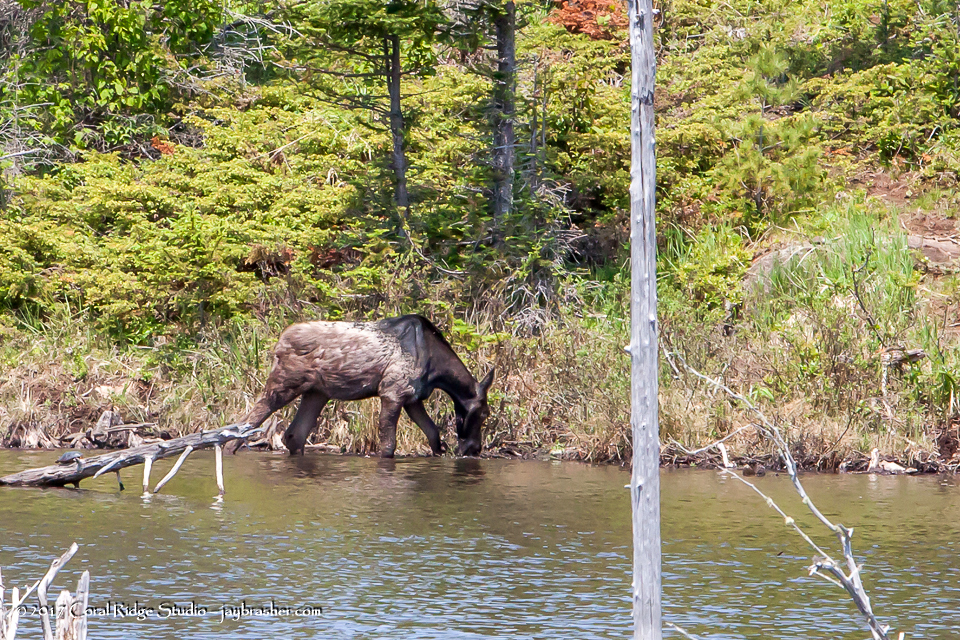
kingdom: Animalia
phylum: Chordata
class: Mammalia
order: Artiodactyla
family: Cervidae
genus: Alces
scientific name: Alces alces
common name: Moose
